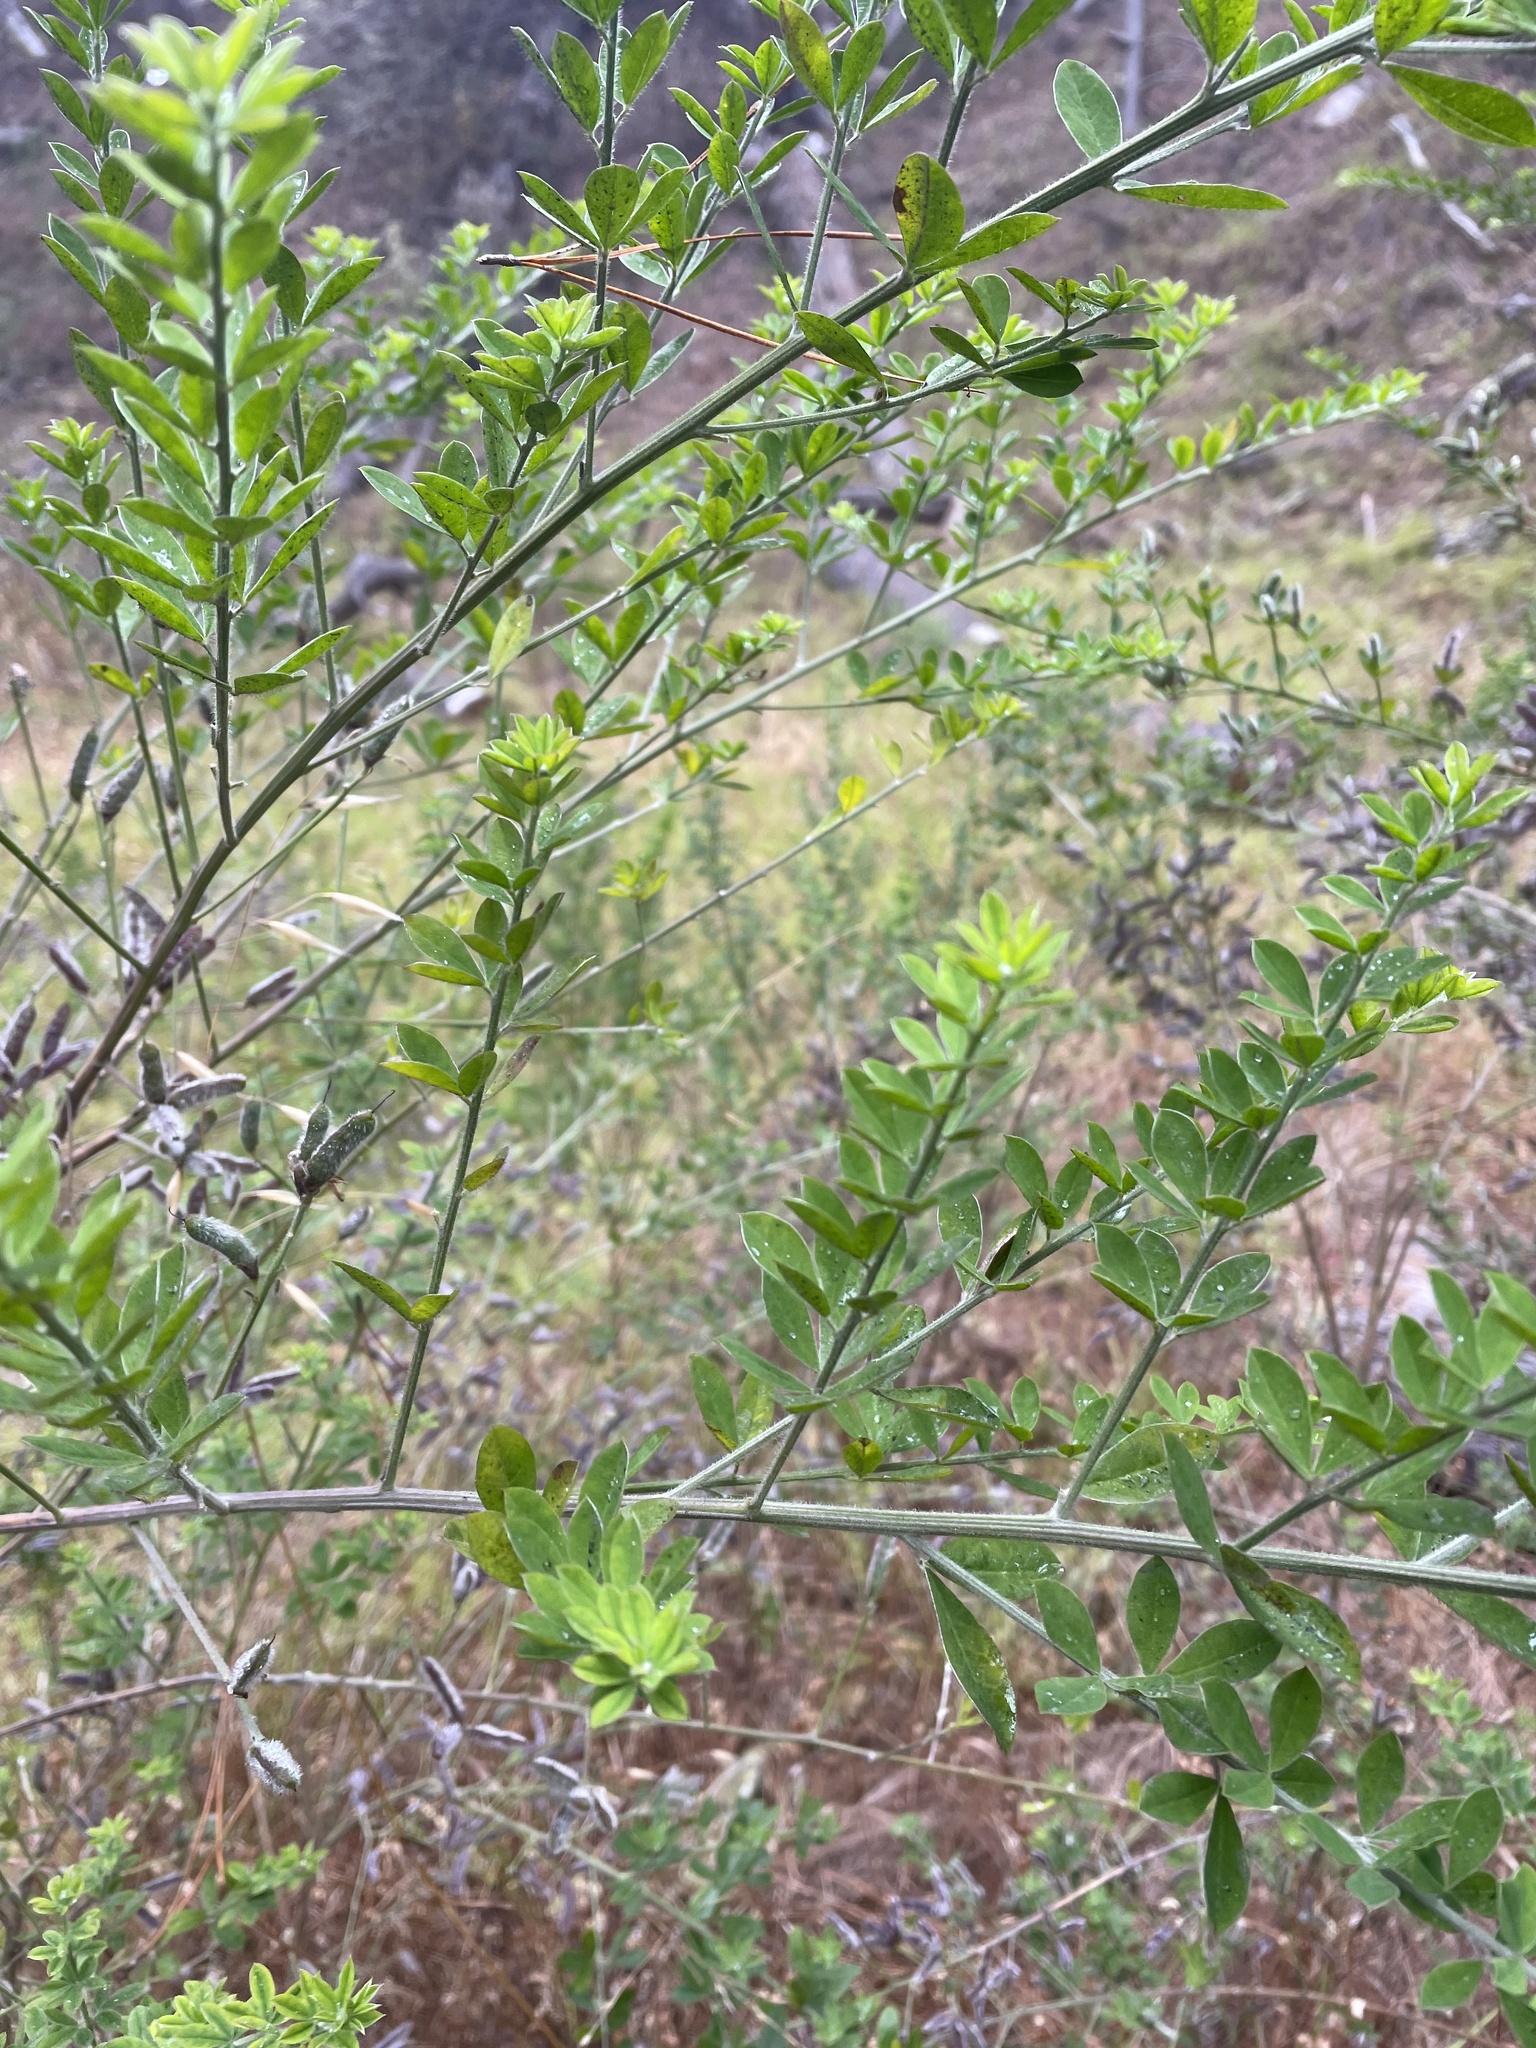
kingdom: Plantae
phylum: Tracheophyta
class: Magnoliopsida
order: Fabales
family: Fabaceae
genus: Genista
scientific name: Genista monspessulana
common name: Montpellier broom
